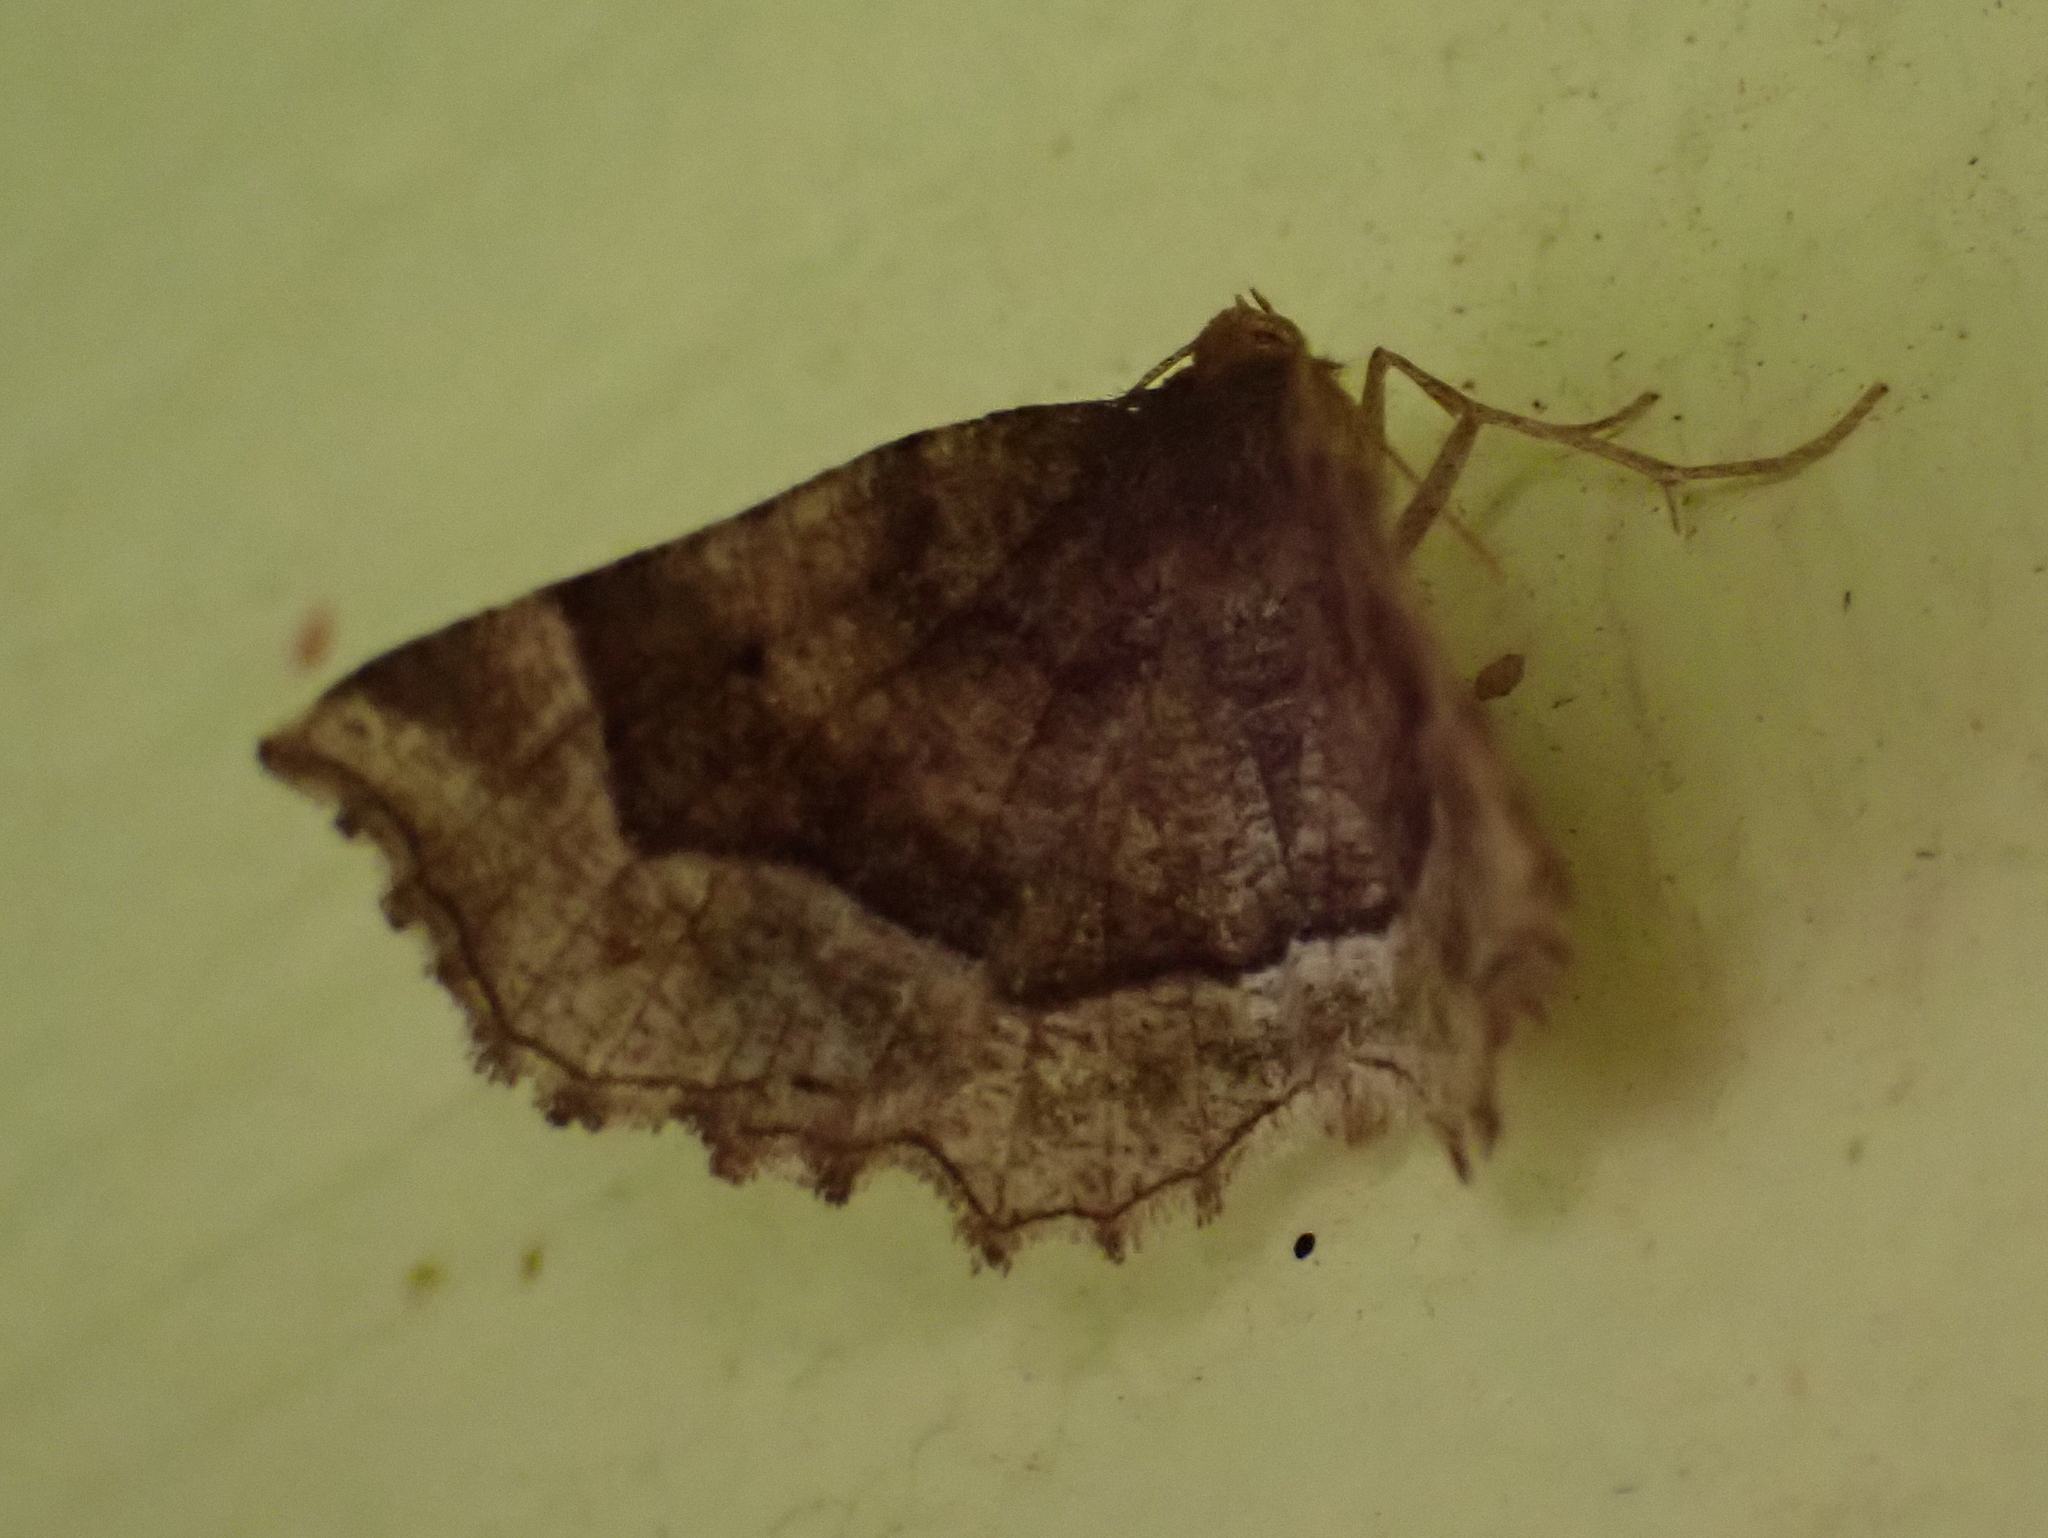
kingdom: Animalia
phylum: Arthropoda
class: Insecta
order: Lepidoptera
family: Geometridae
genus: Metarranthis
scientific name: Metarranthis refractaria
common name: Refracted metarranthis moth
